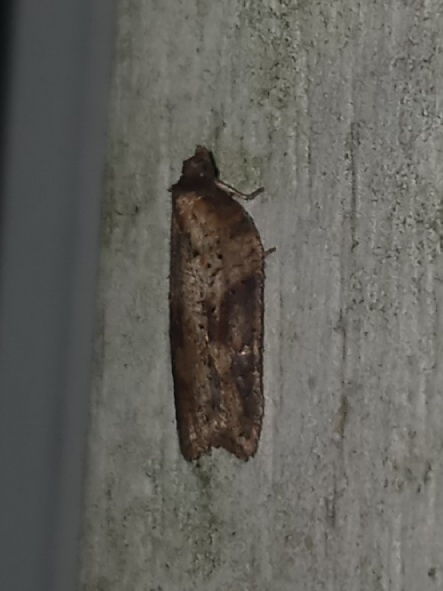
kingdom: Animalia
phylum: Arthropoda
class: Insecta
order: Lepidoptera
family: Tortricidae
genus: Acleris
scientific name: Acleris schalleriana
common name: Viburnum button
